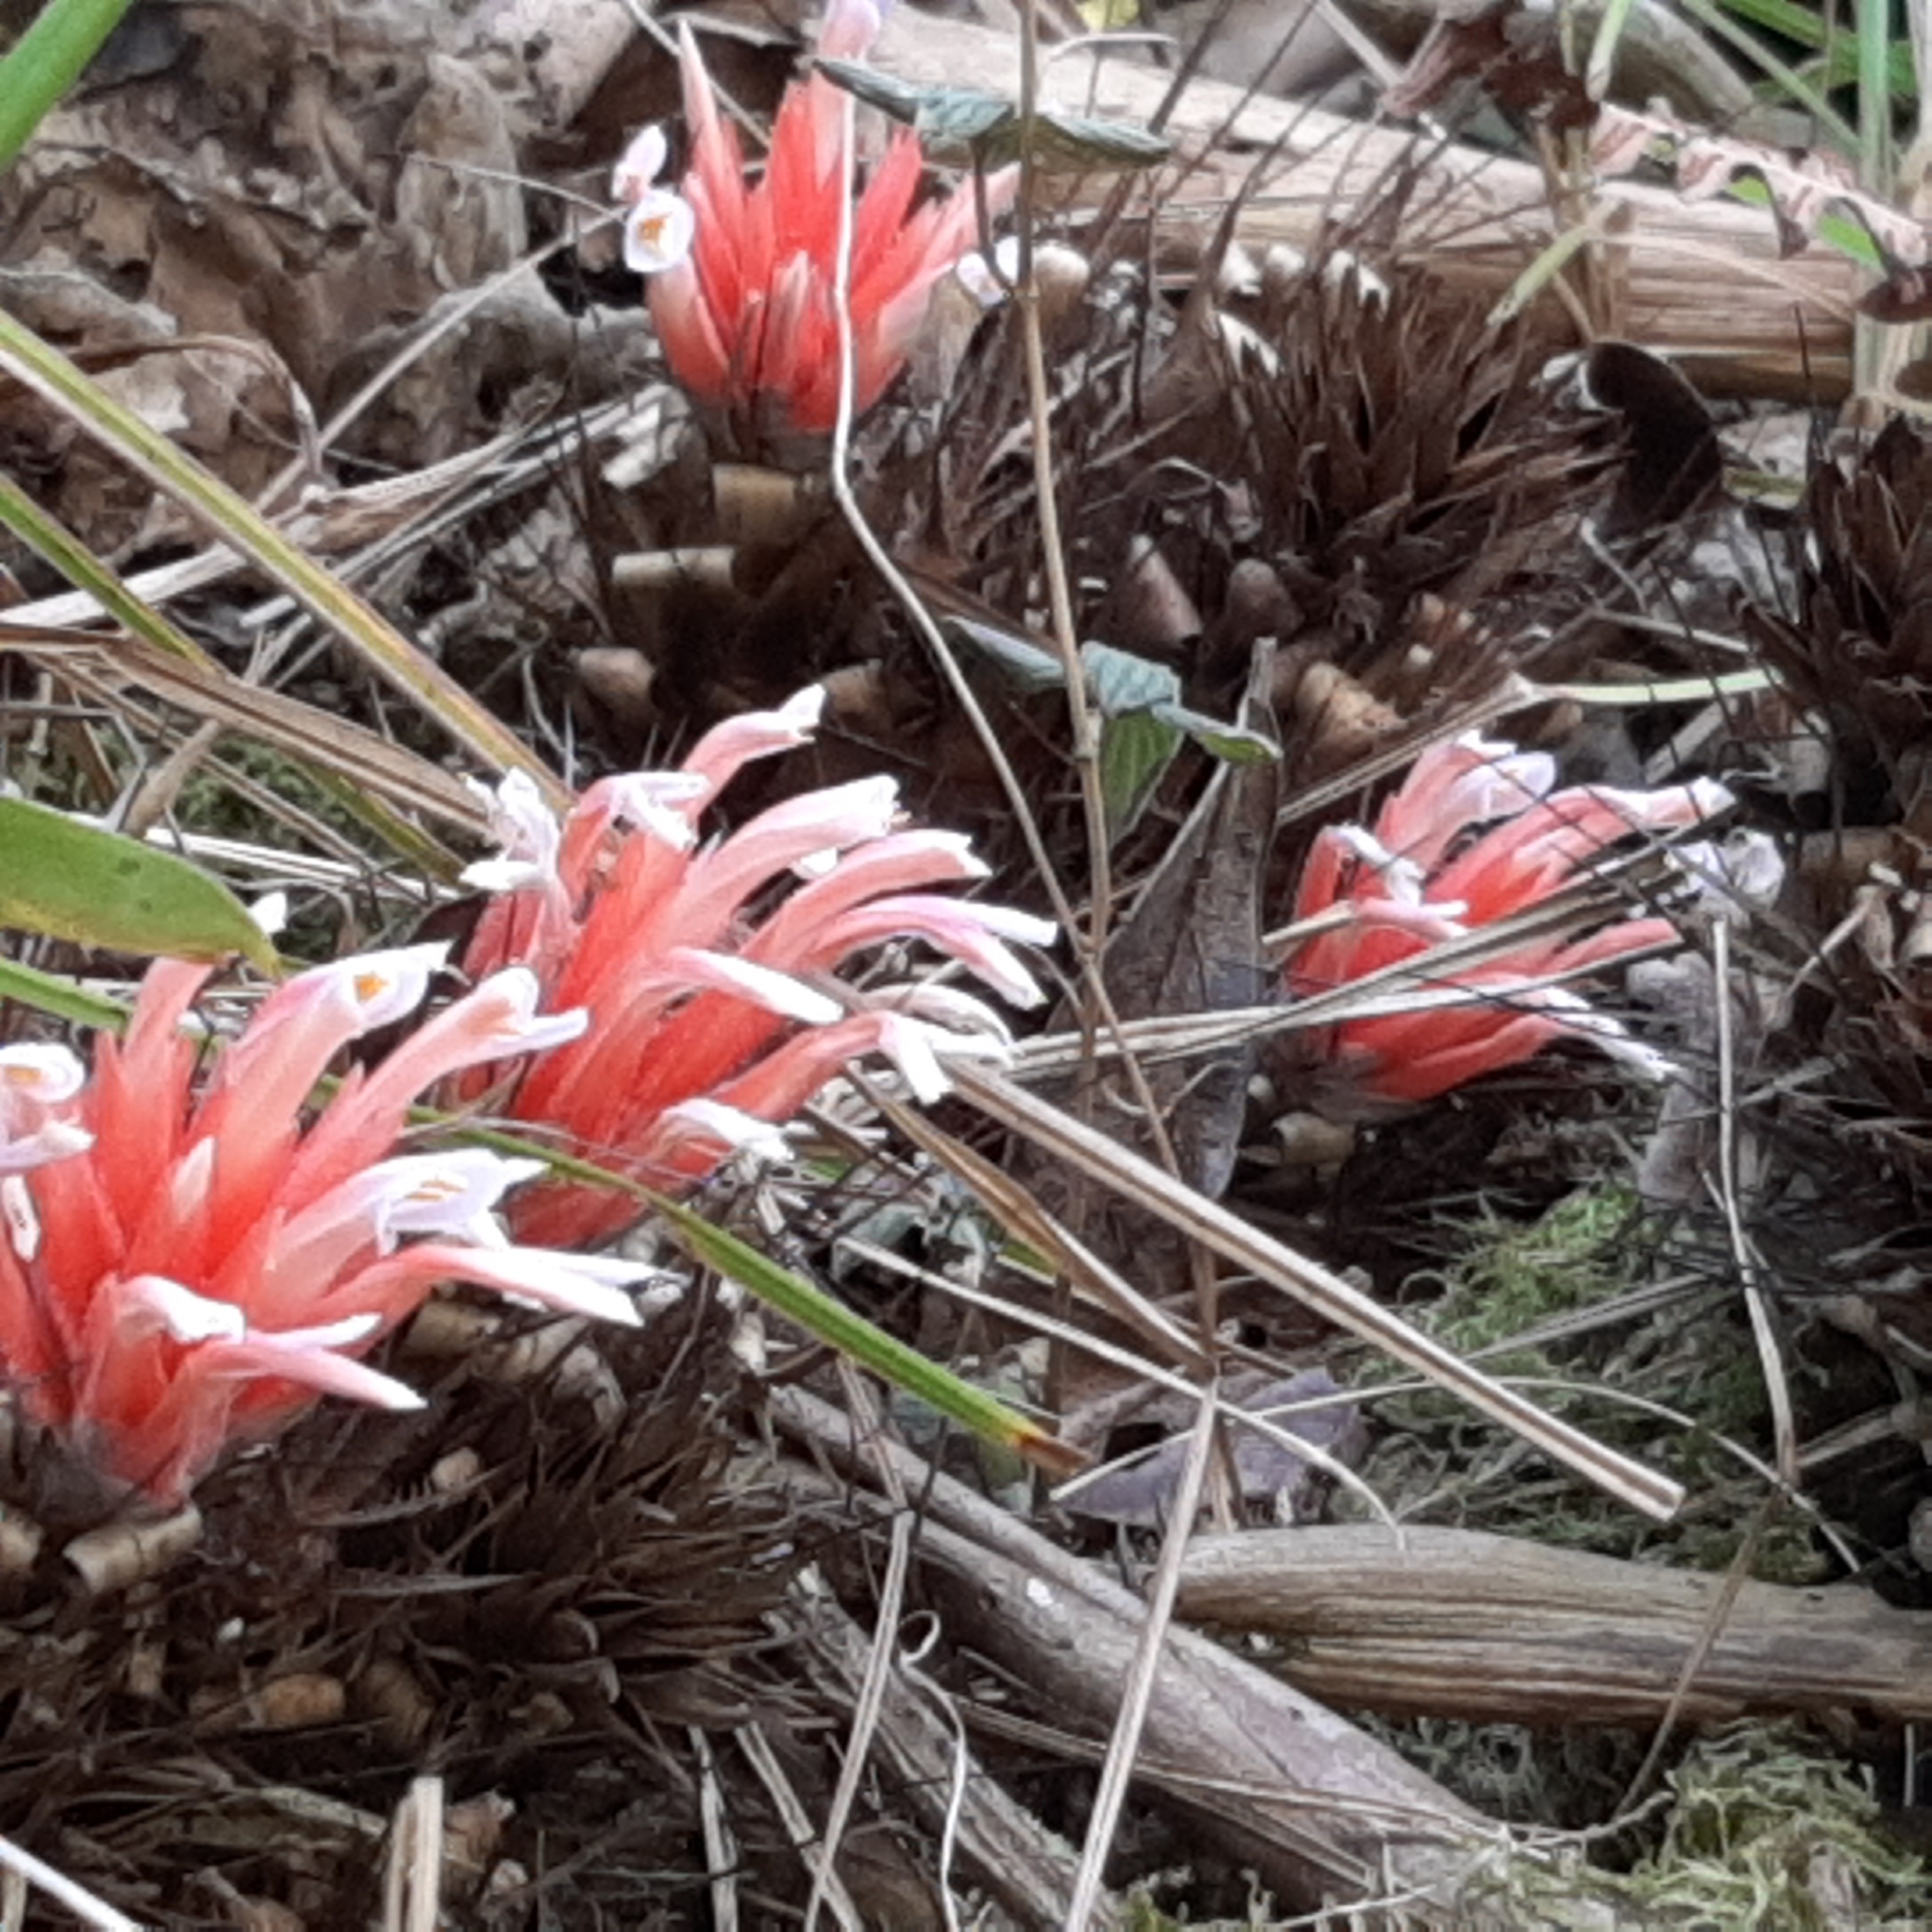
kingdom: Plantae
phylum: Tracheophyta
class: Liliopsida
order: Poales
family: Bromeliaceae
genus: Pitcairnia
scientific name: Pitcairnia heterophylla
